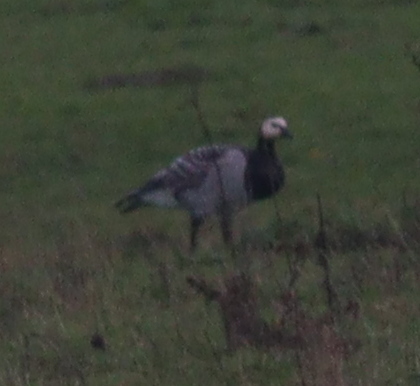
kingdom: Animalia
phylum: Chordata
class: Aves
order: Anseriformes
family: Anatidae
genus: Branta
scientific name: Branta leucopsis
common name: Barnacle goose
